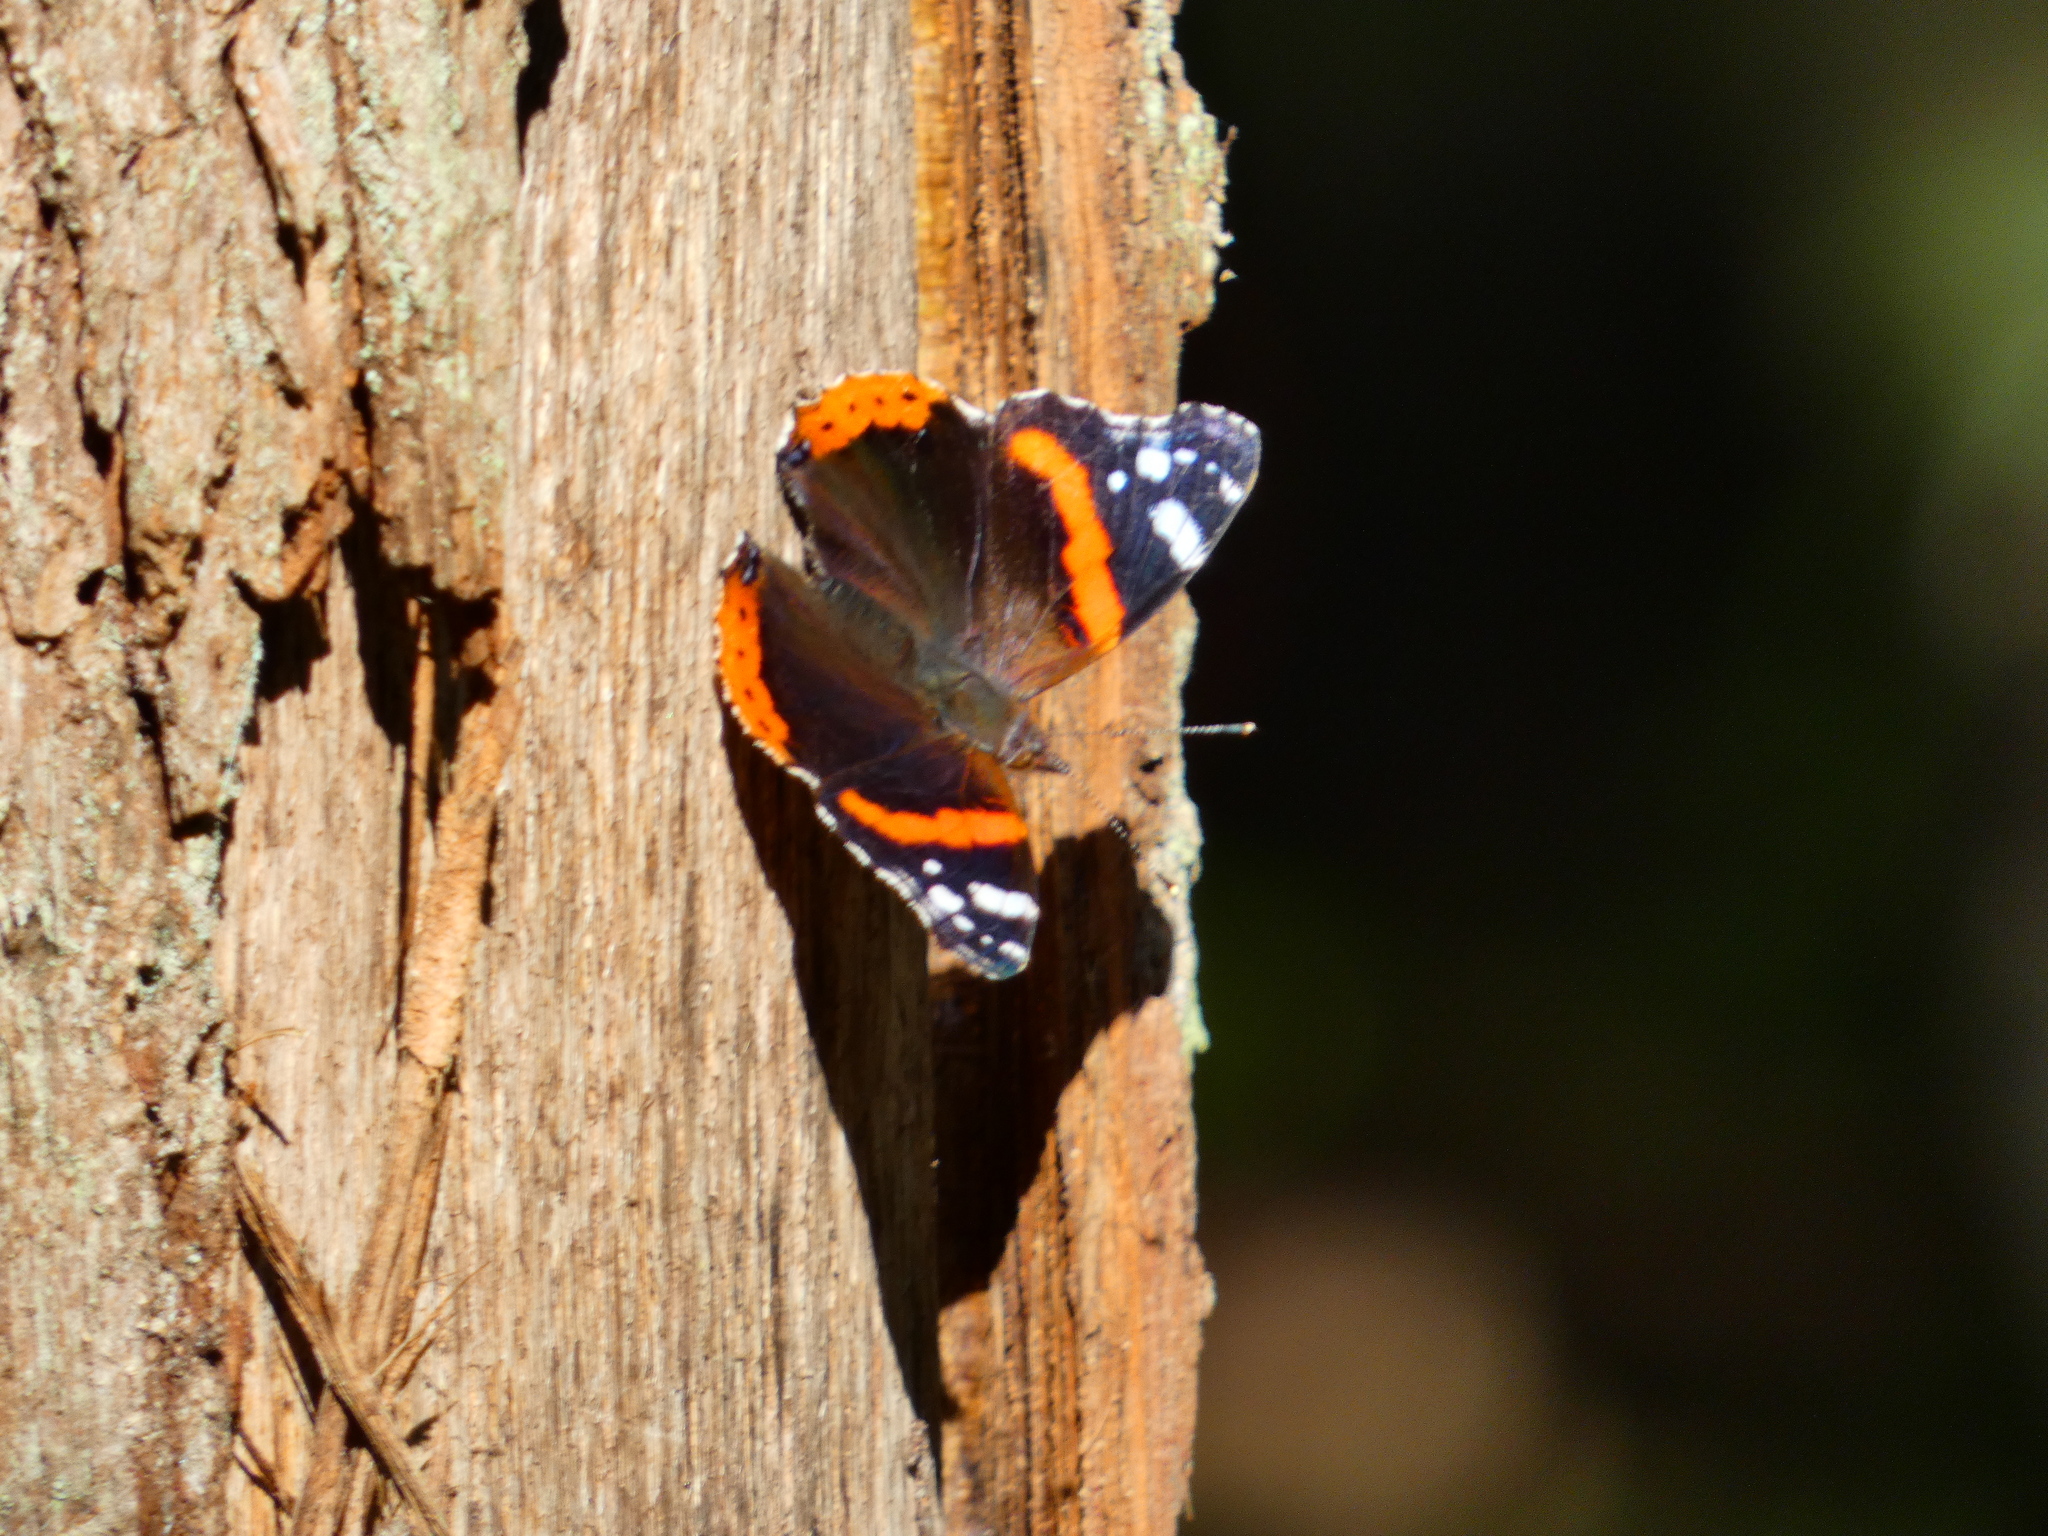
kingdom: Animalia
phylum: Arthropoda
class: Insecta
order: Lepidoptera
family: Nymphalidae
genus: Vanessa
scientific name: Vanessa atalanta
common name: Red admiral
